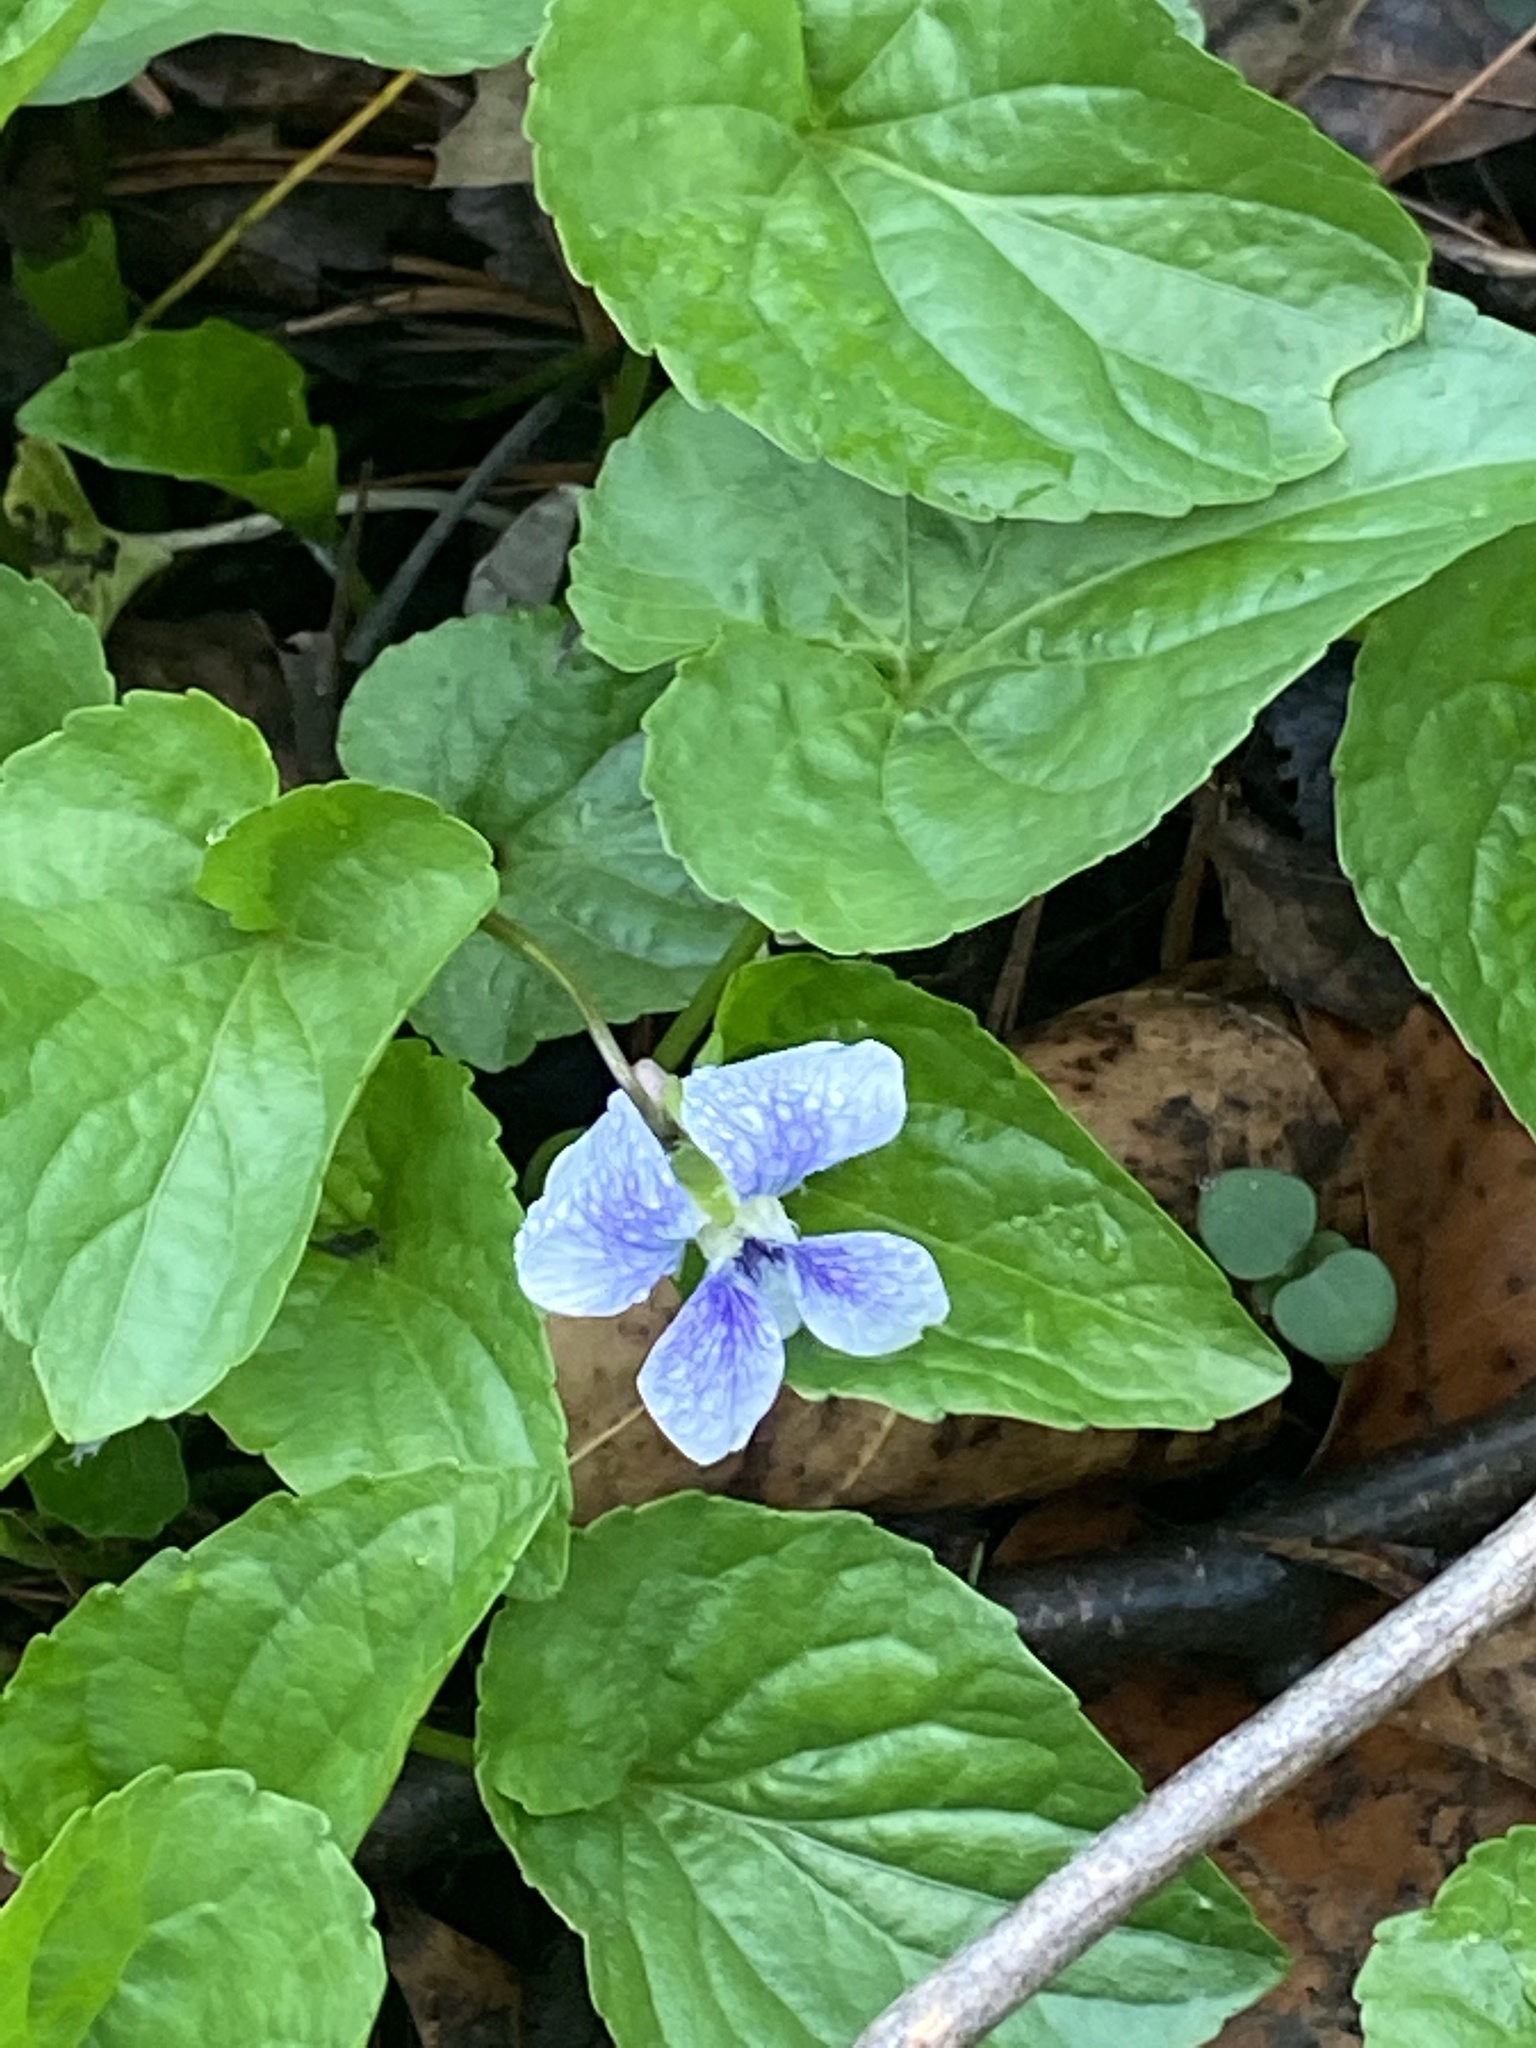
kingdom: Plantae
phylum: Tracheophyta
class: Magnoliopsida
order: Malpighiales
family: Violaceae
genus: Viola
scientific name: Viola sororia
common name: Dooryard violet
